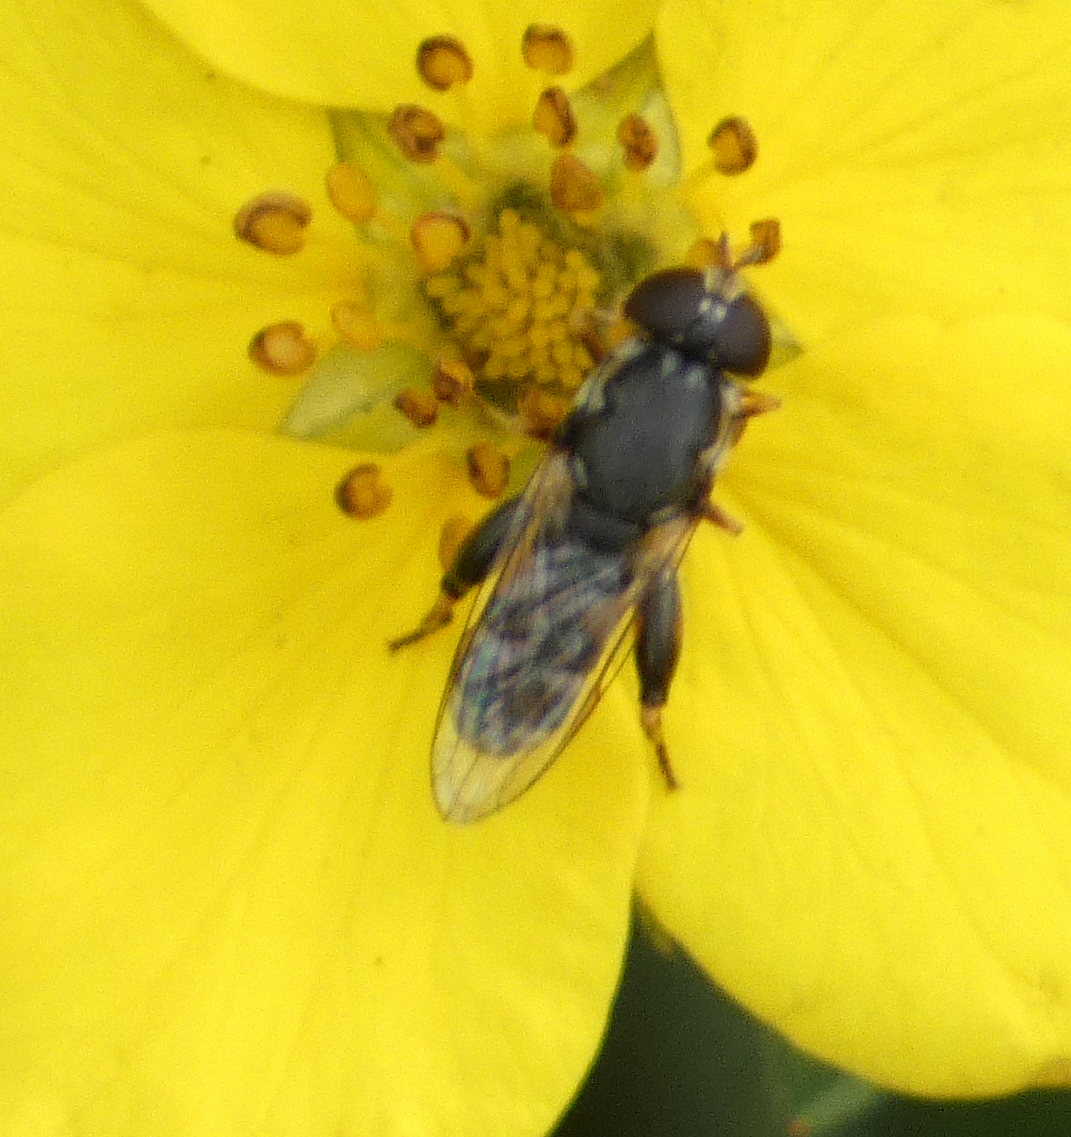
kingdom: Animalia
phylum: Arthropoda
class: Insecta
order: Diptera
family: Syrphidae
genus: Syritta
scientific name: Syritta pipiens
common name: Hover fly
